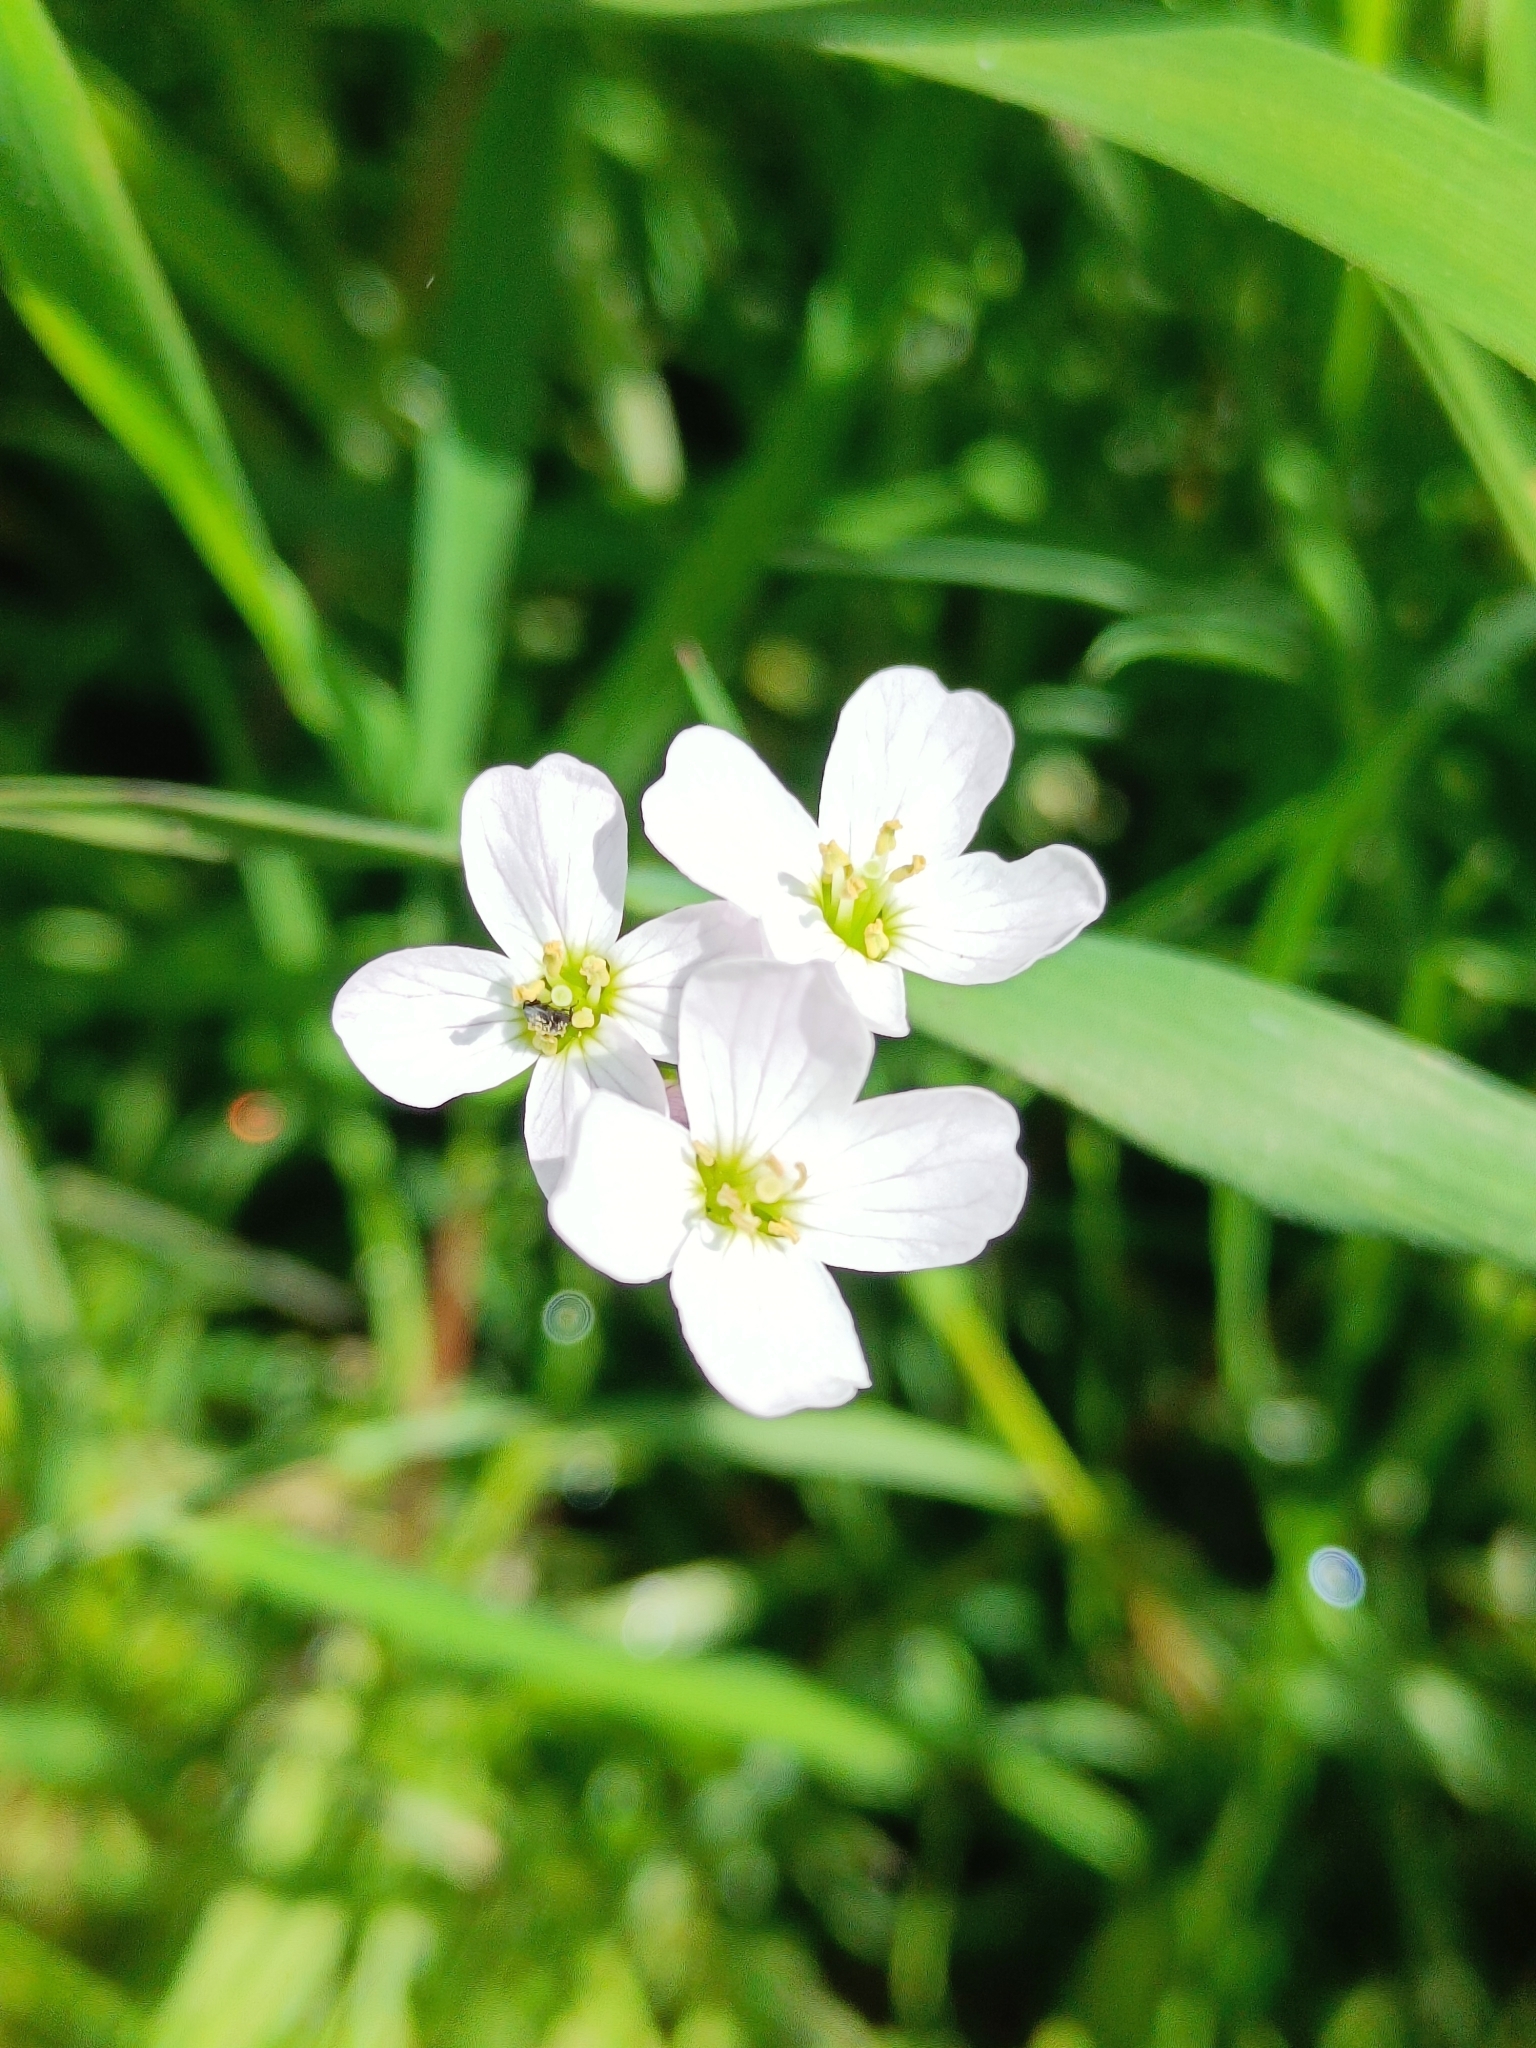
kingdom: Plantae
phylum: Tracheophyta
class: Magnoliopsida
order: Brassicales
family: Brassicaceae
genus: Cardamine
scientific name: Cardamine pratensis
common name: Cuckoo flower
